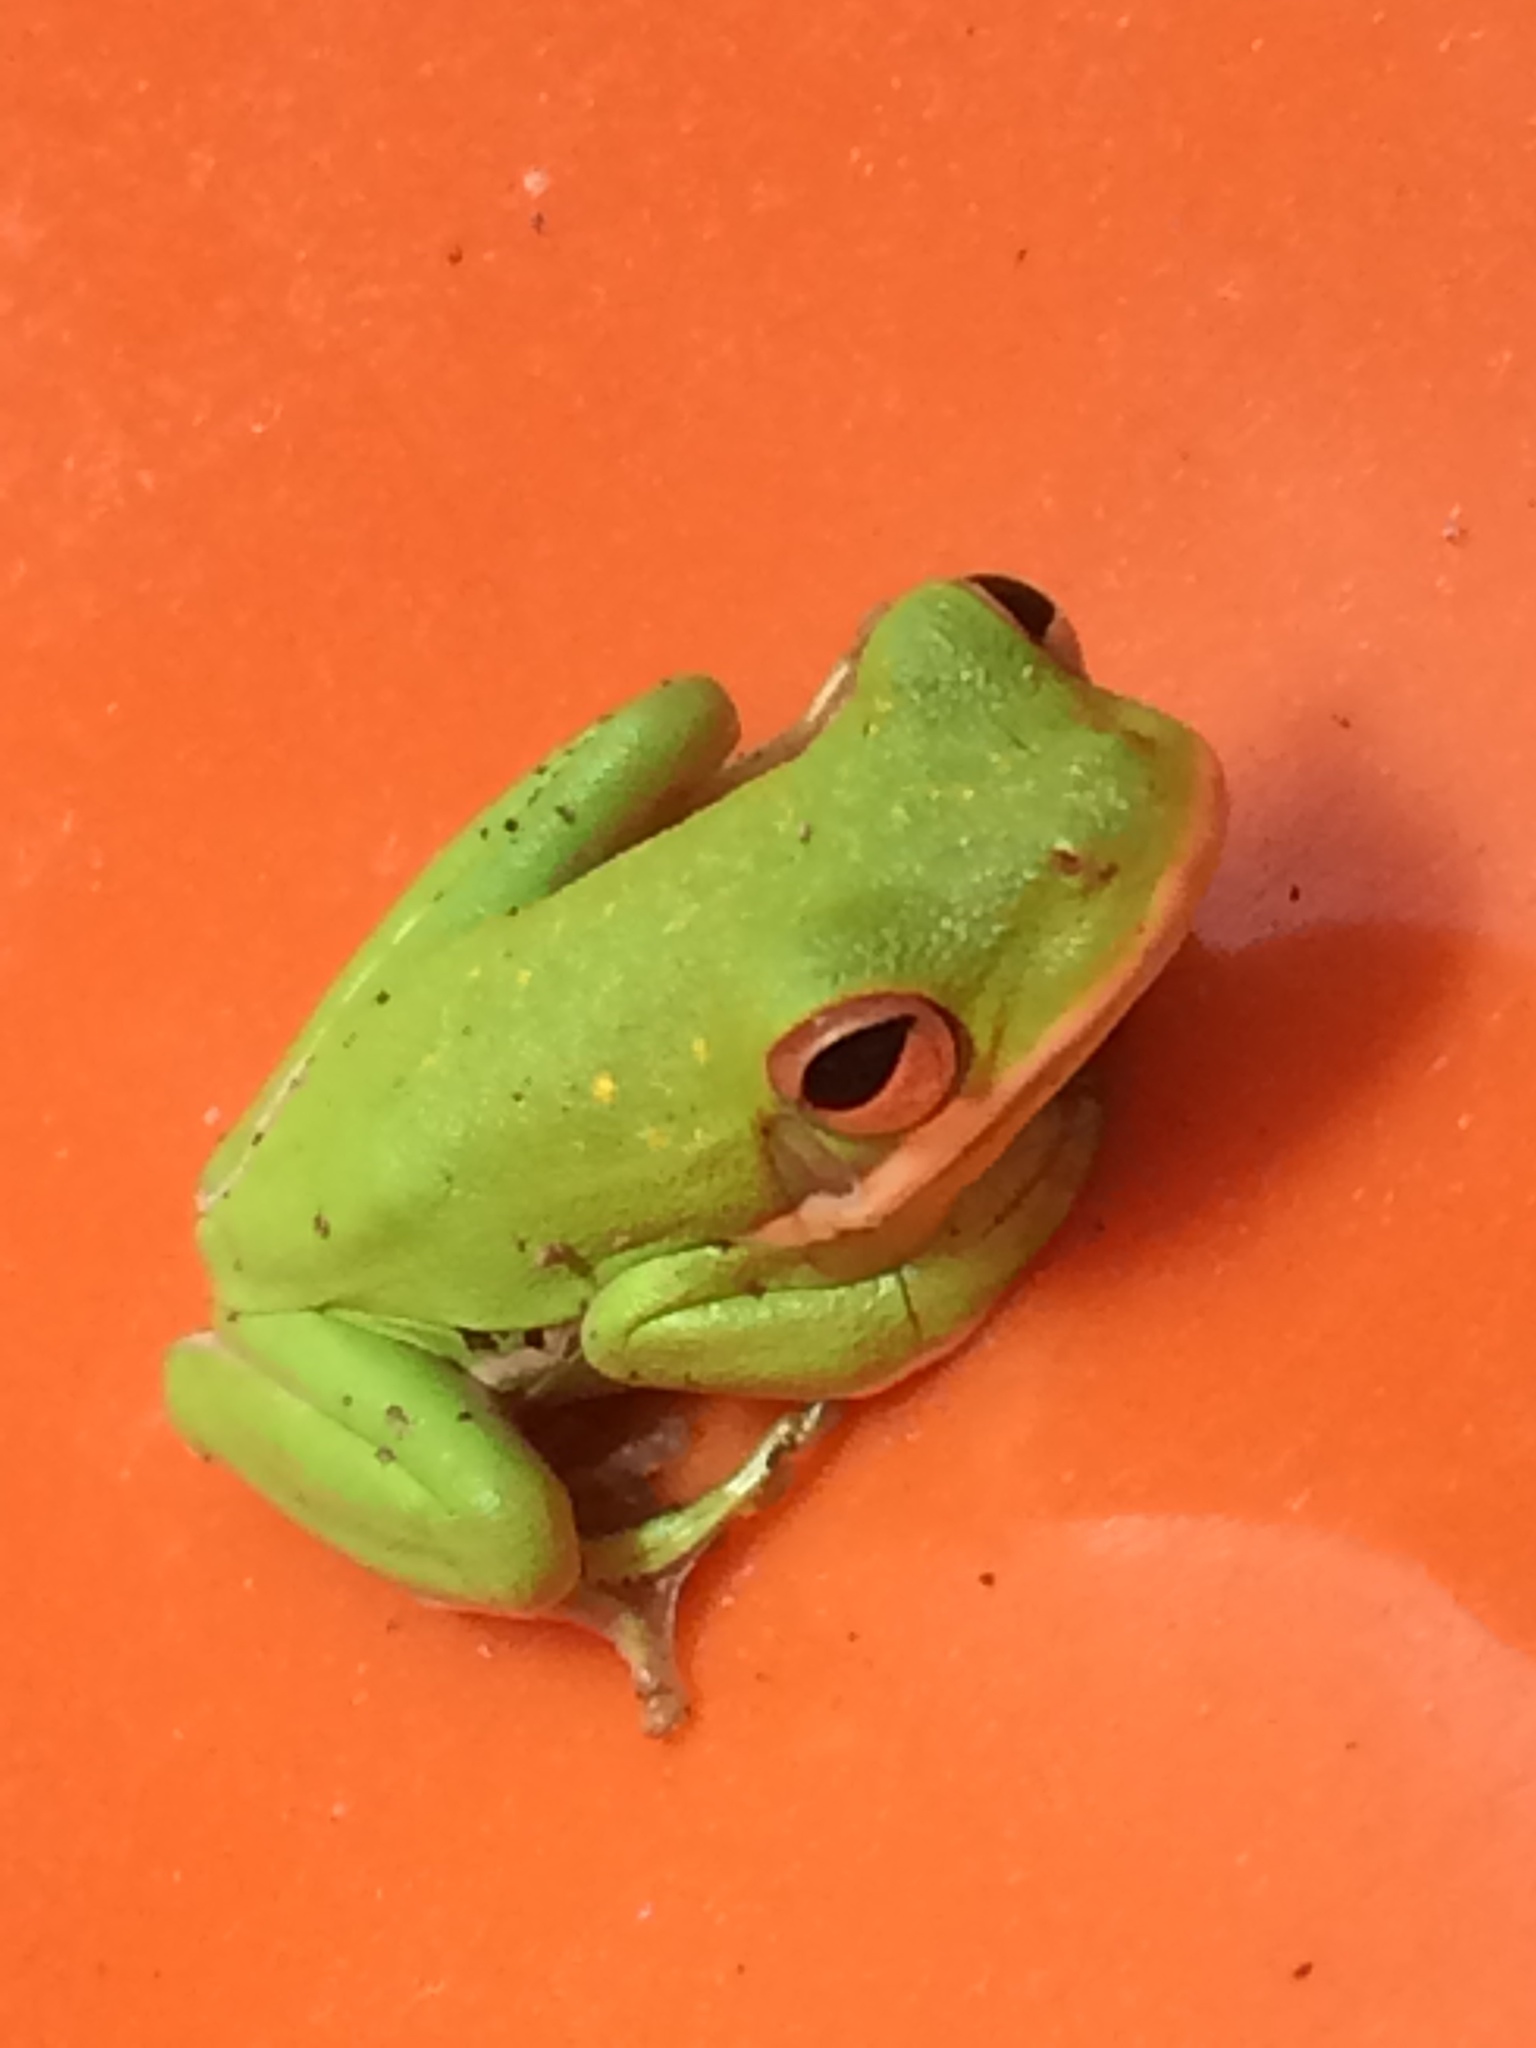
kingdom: Animalia
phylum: Chordata
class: Amphibia
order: Anura
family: Hylidae
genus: Dryophytes
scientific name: Dryophytes cinereus
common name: Green treefrog
